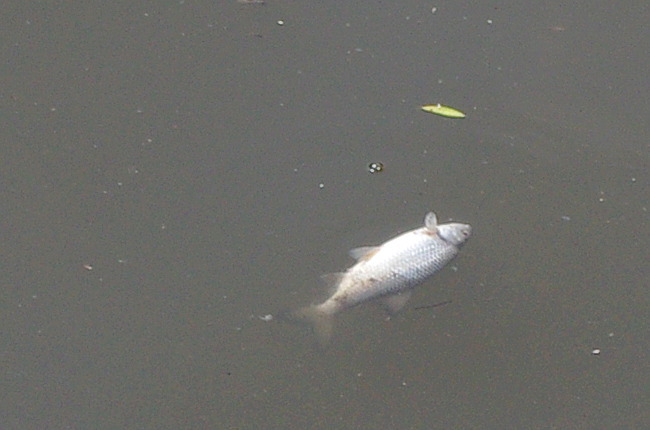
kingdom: Animalia
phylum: Chordata
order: Cypriniformes
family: Cyprinidae
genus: Leuciscus
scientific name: Leuciscus idus
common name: Ide
